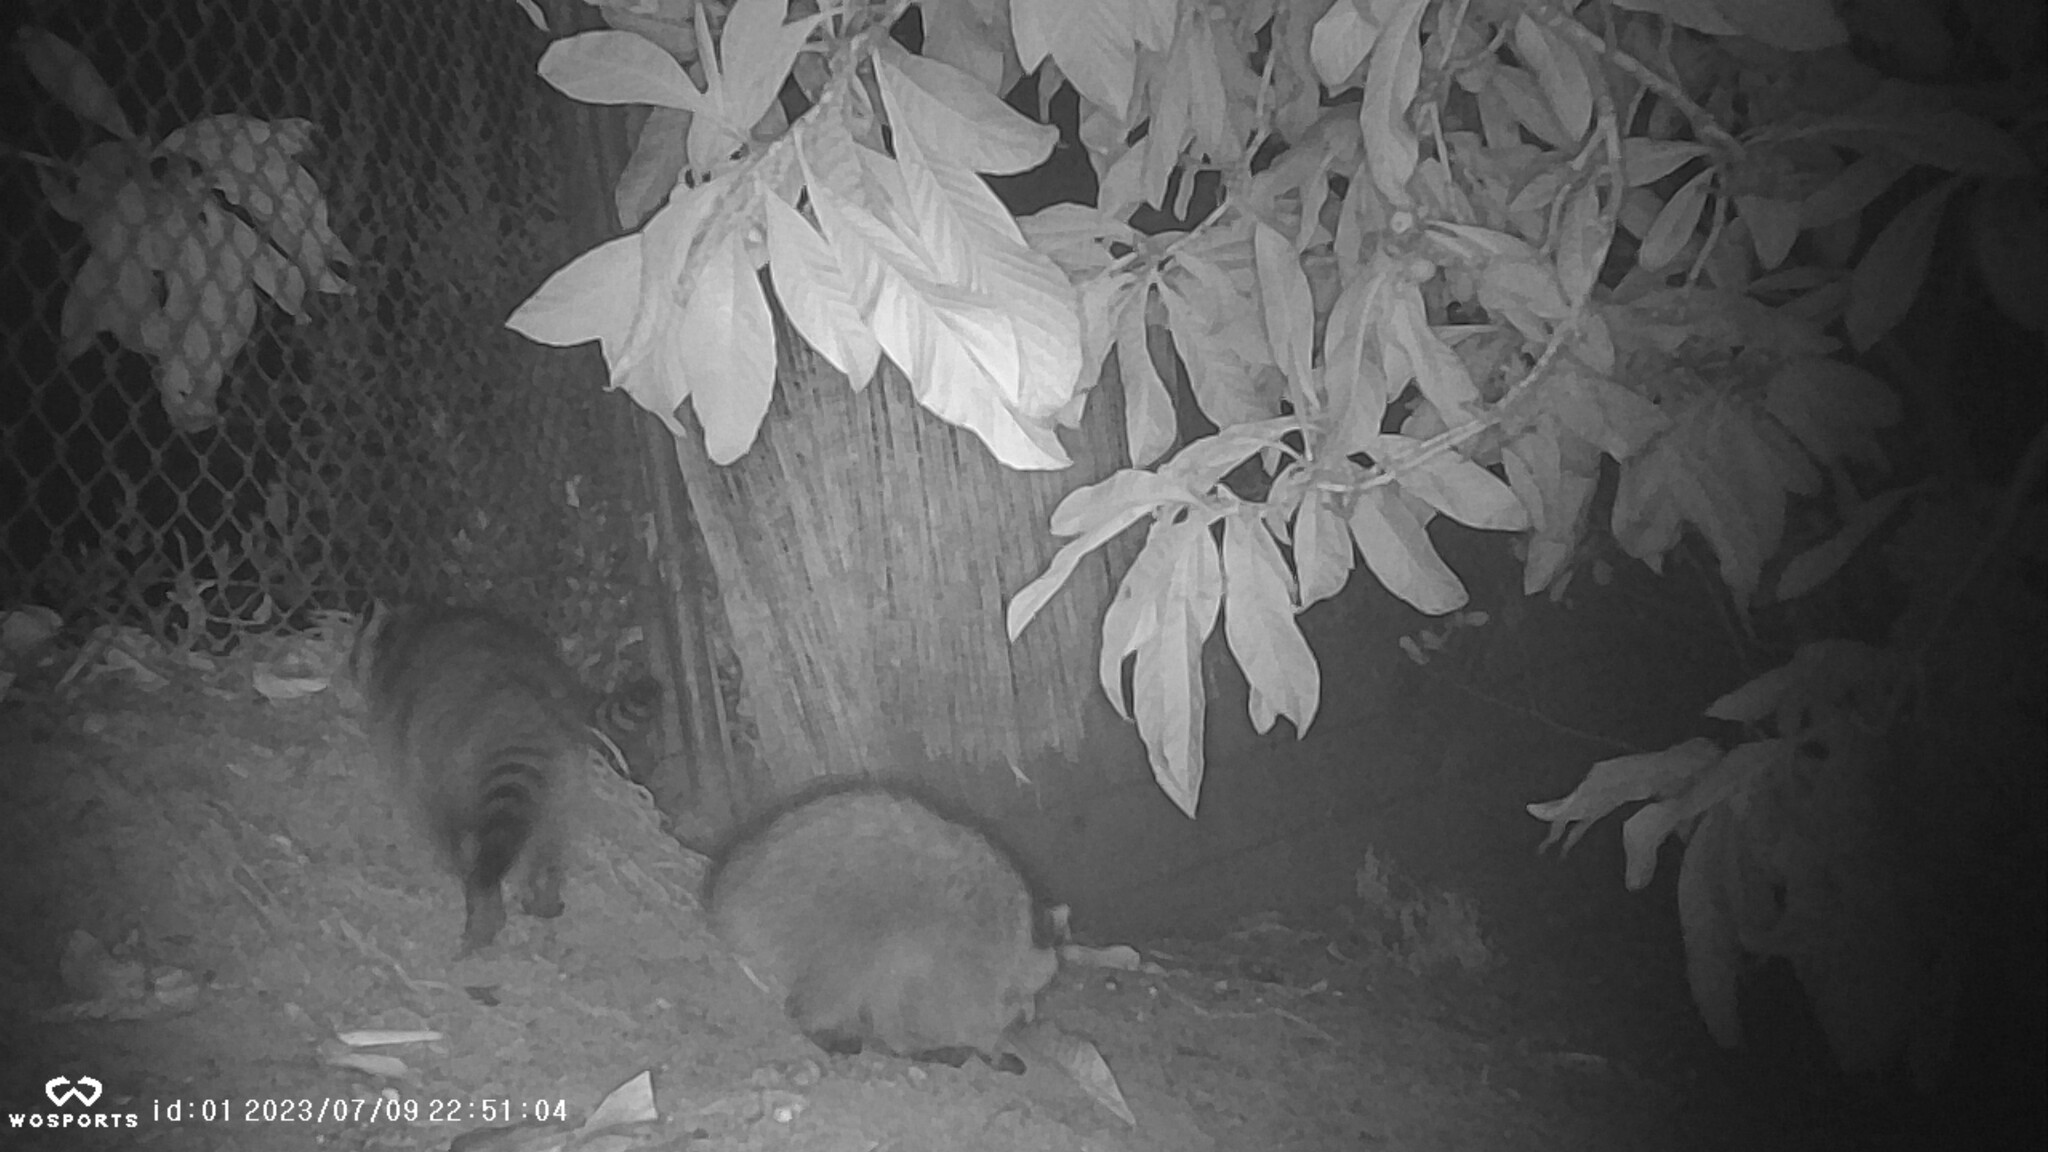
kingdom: Animalia
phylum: Chordata
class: Mammalia
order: Carnivora
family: Procyonidae
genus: Procyon
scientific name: Procyon lotor
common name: Raccoon
